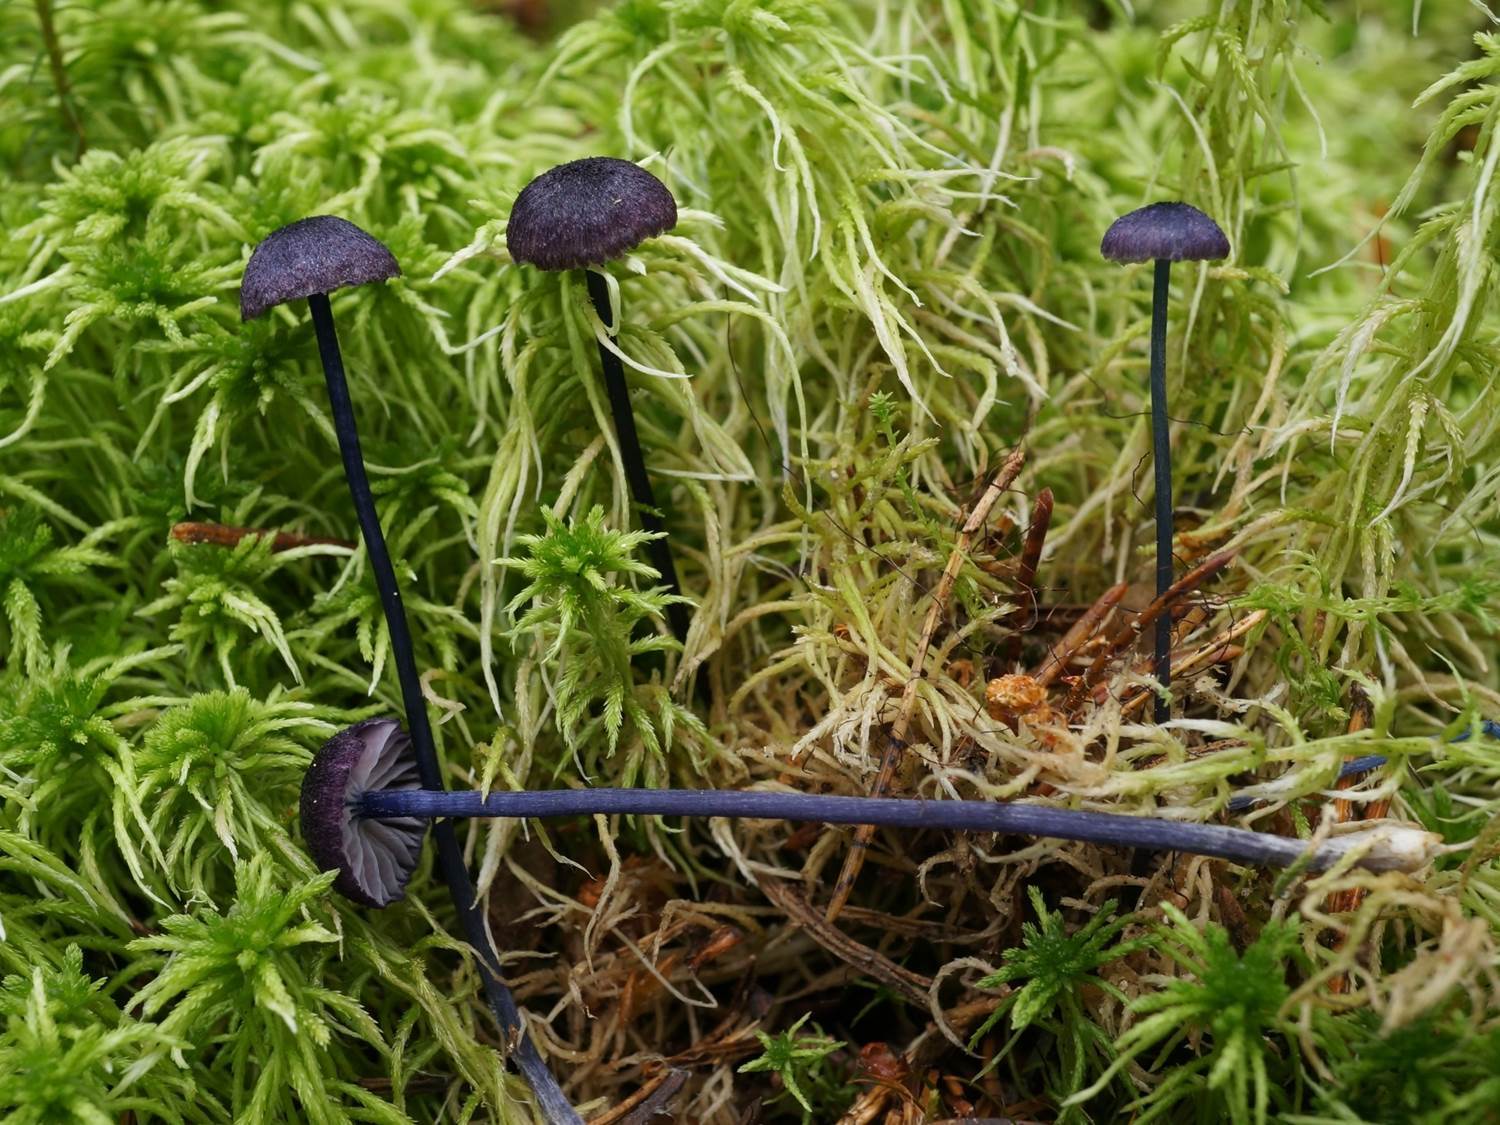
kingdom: Fungi
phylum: Basidiomycota
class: Agaricomycetes
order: Agaricales
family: Entolomataceae
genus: Entoloma
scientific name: Entoloma kruticianum
